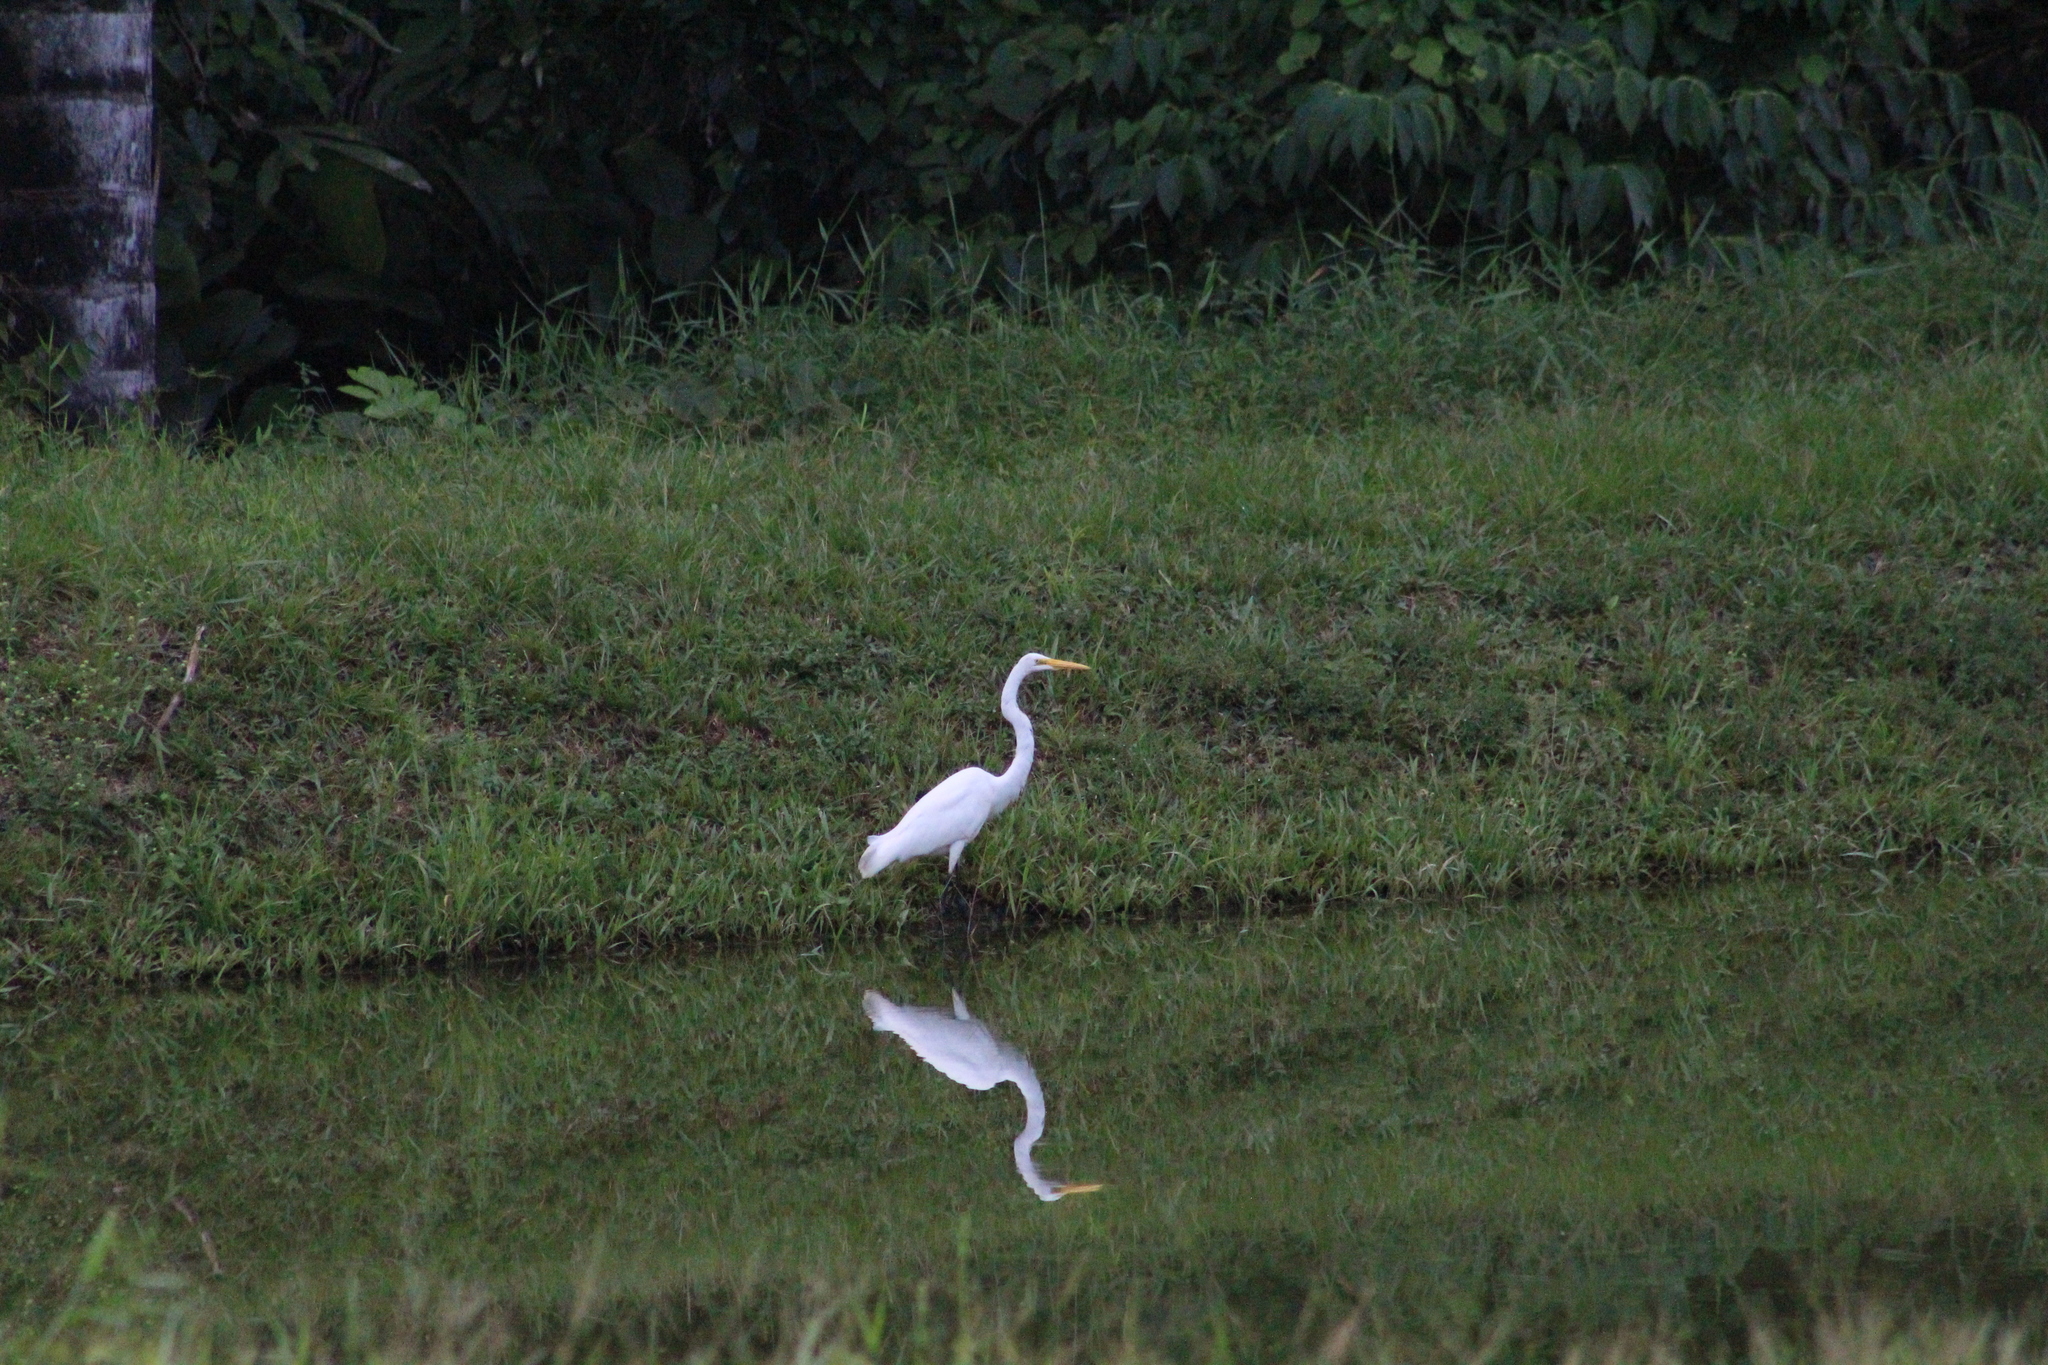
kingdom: Animalia
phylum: Chordata
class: Aves
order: Pelecaniformes
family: Ardeidae
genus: Ardea
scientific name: Ardea alba
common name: Great egret
